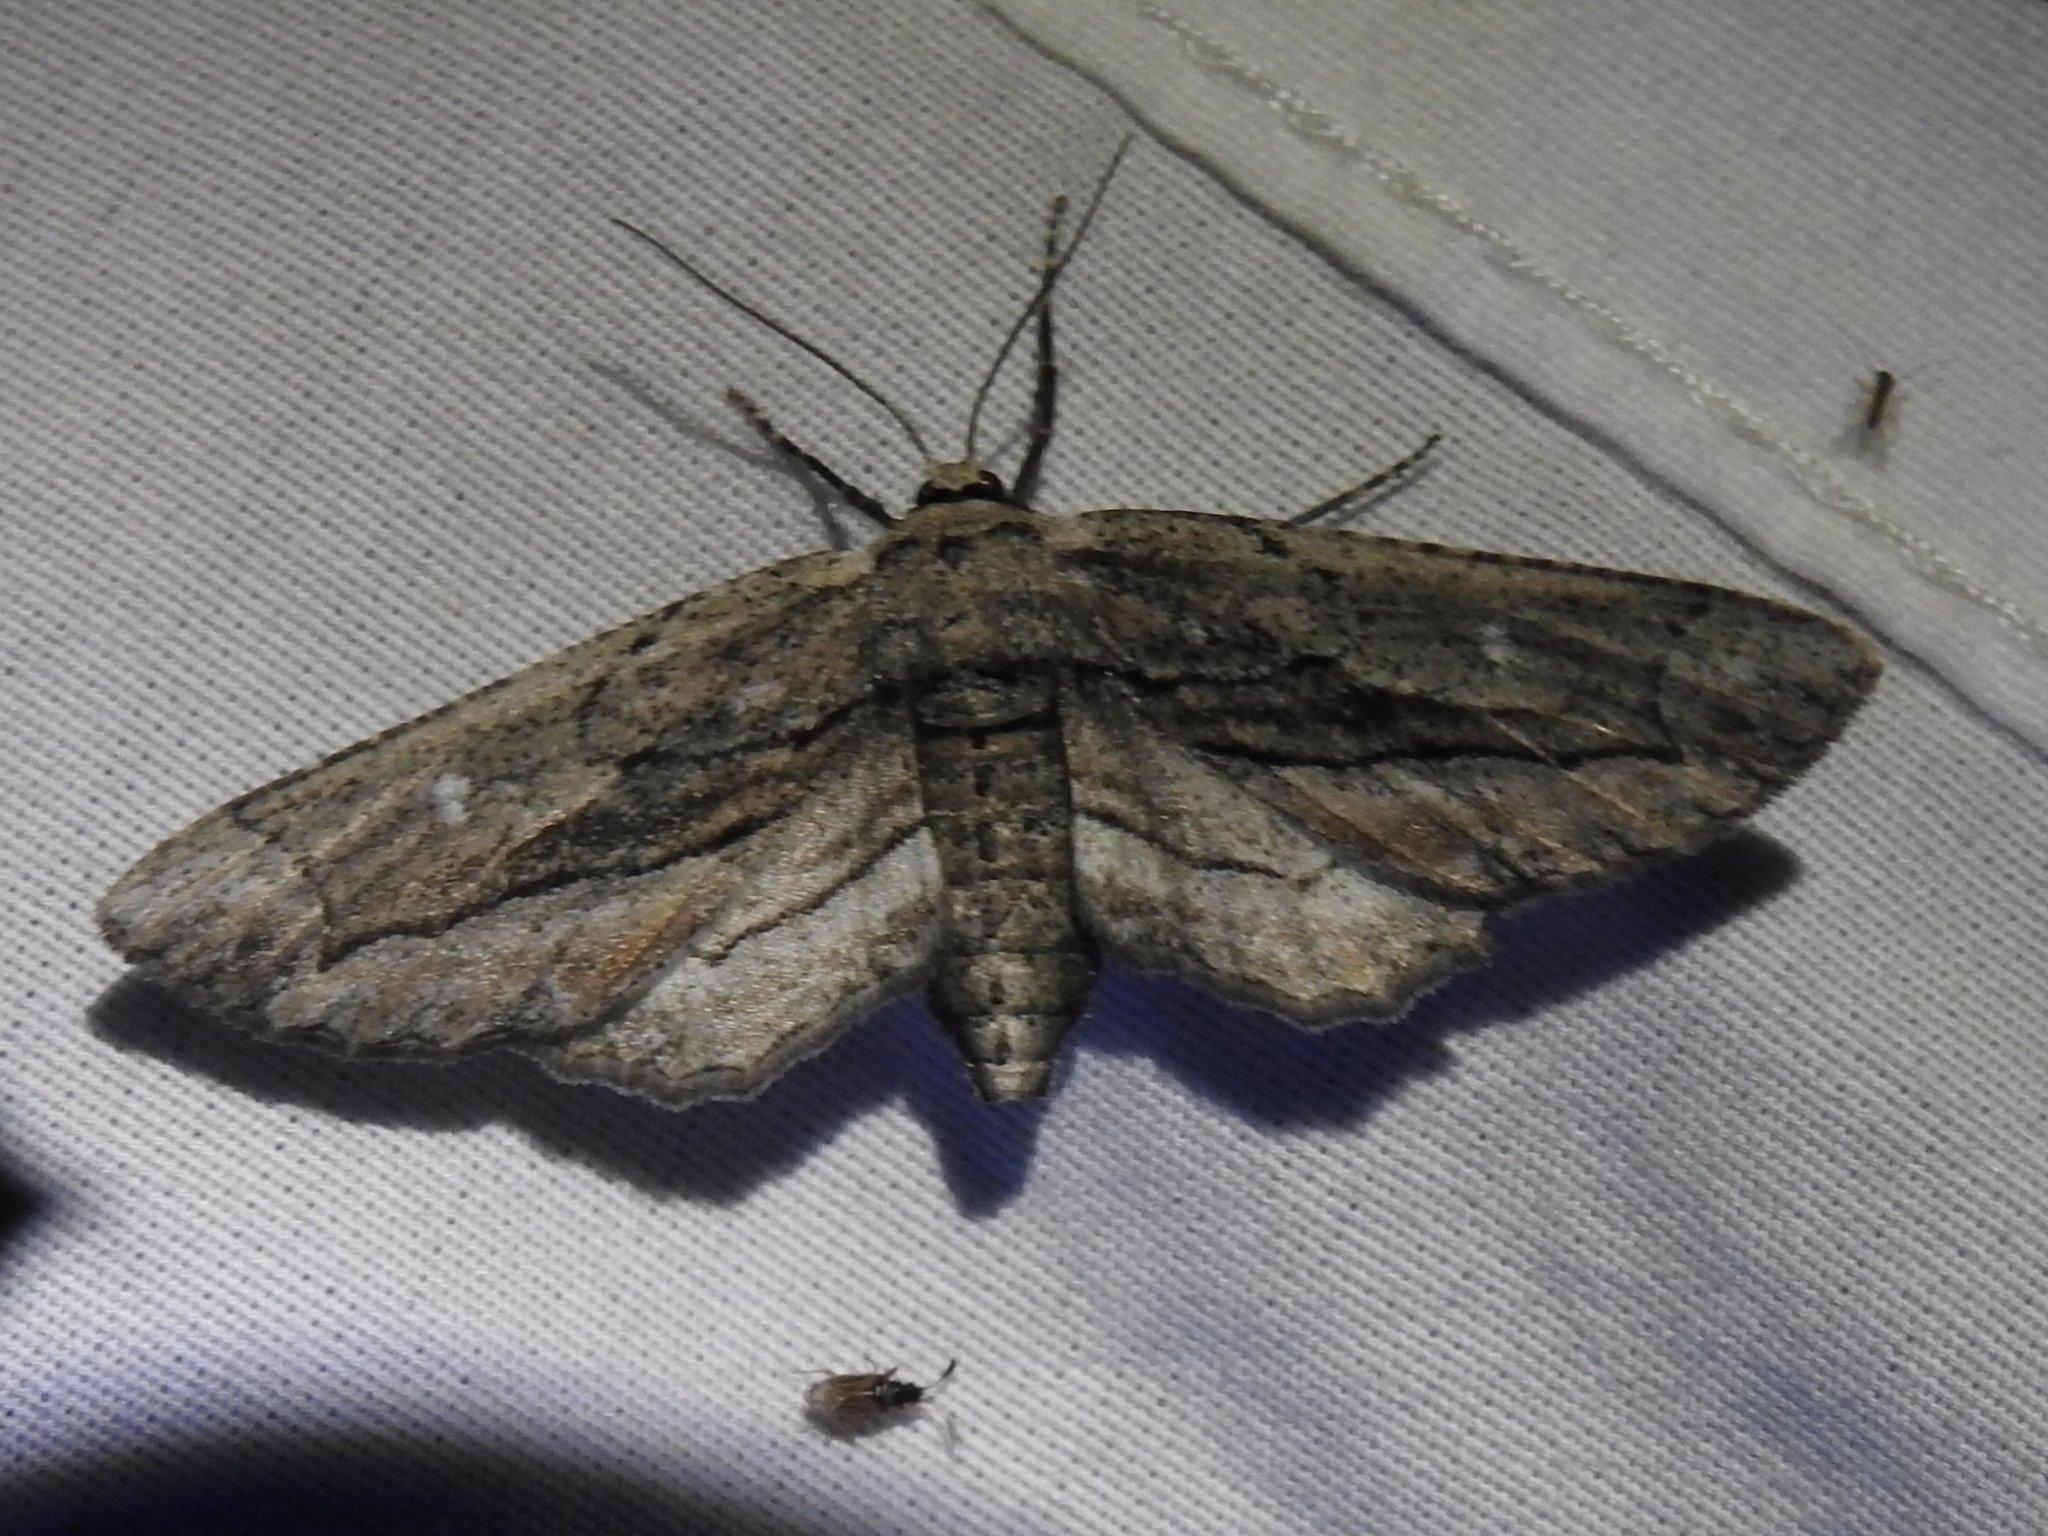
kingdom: Animalia
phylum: Arthropoda
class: Insecta
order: Lepidoptera
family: Geometridae
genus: Holochroa
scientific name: Holochroa dissociarius
